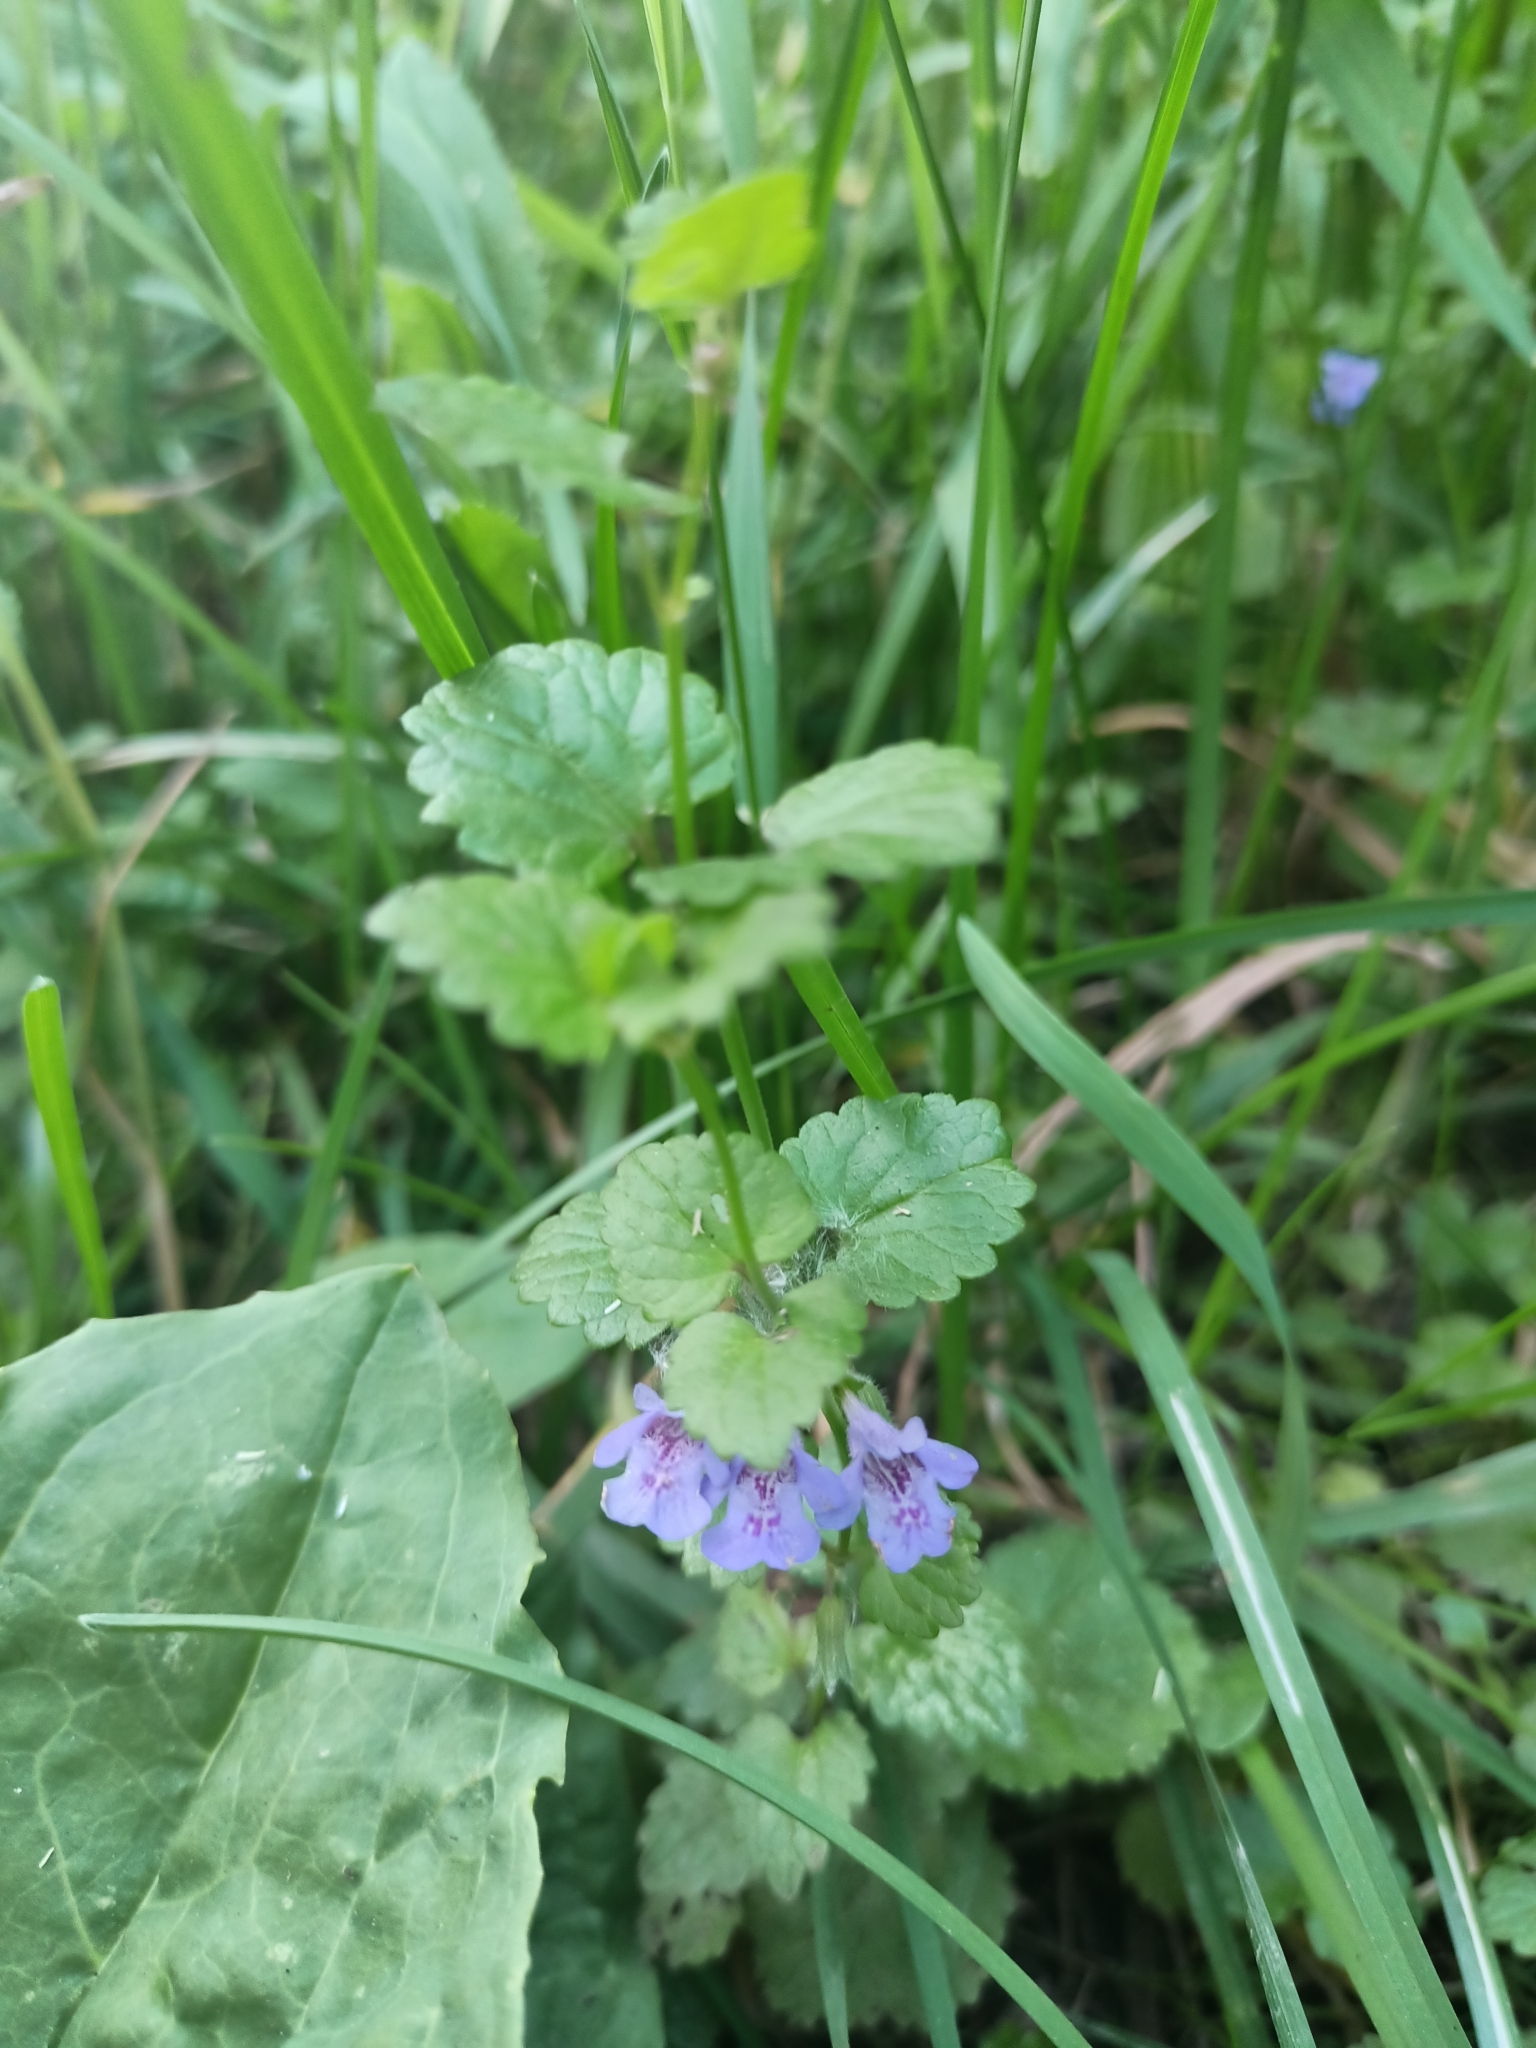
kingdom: Plantae
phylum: Tracheophyta
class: Magnoliopsida
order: Lamiales
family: Lamiaceae
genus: Glechoma
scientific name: Glechoma hederacea
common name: Ground ivy
